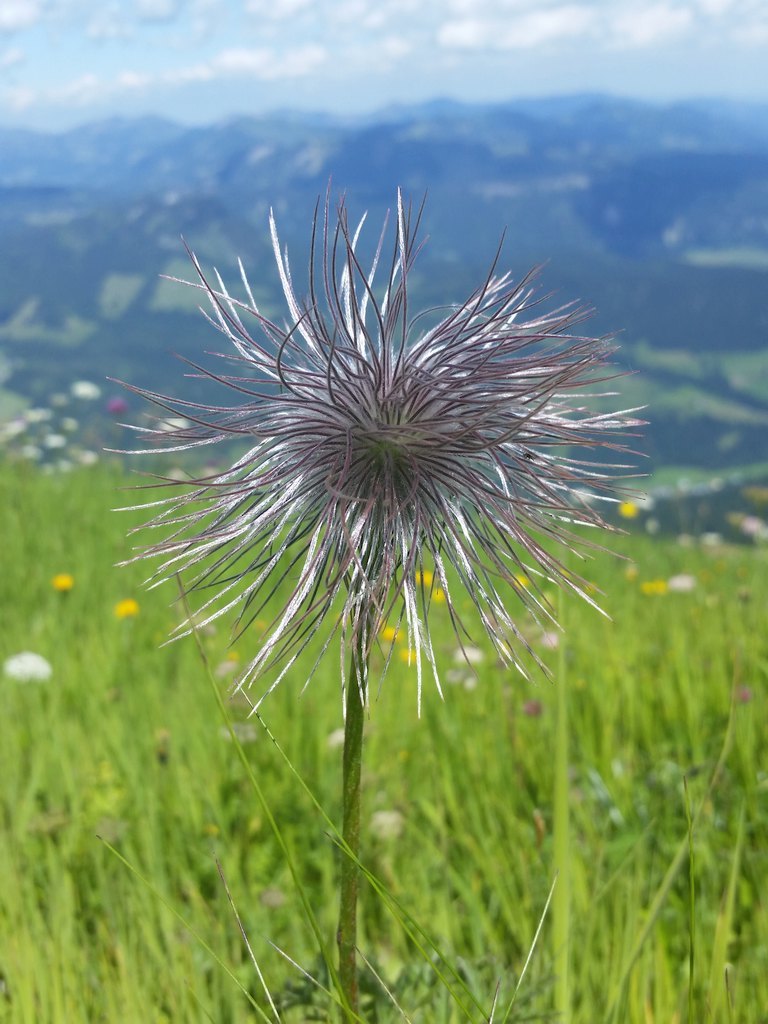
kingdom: Plantae
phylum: Tracheophyta
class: Magnoliopsida
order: Ranunculales
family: Ranunculaceae
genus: Pulsatilla
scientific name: Pulsatilla alpina
